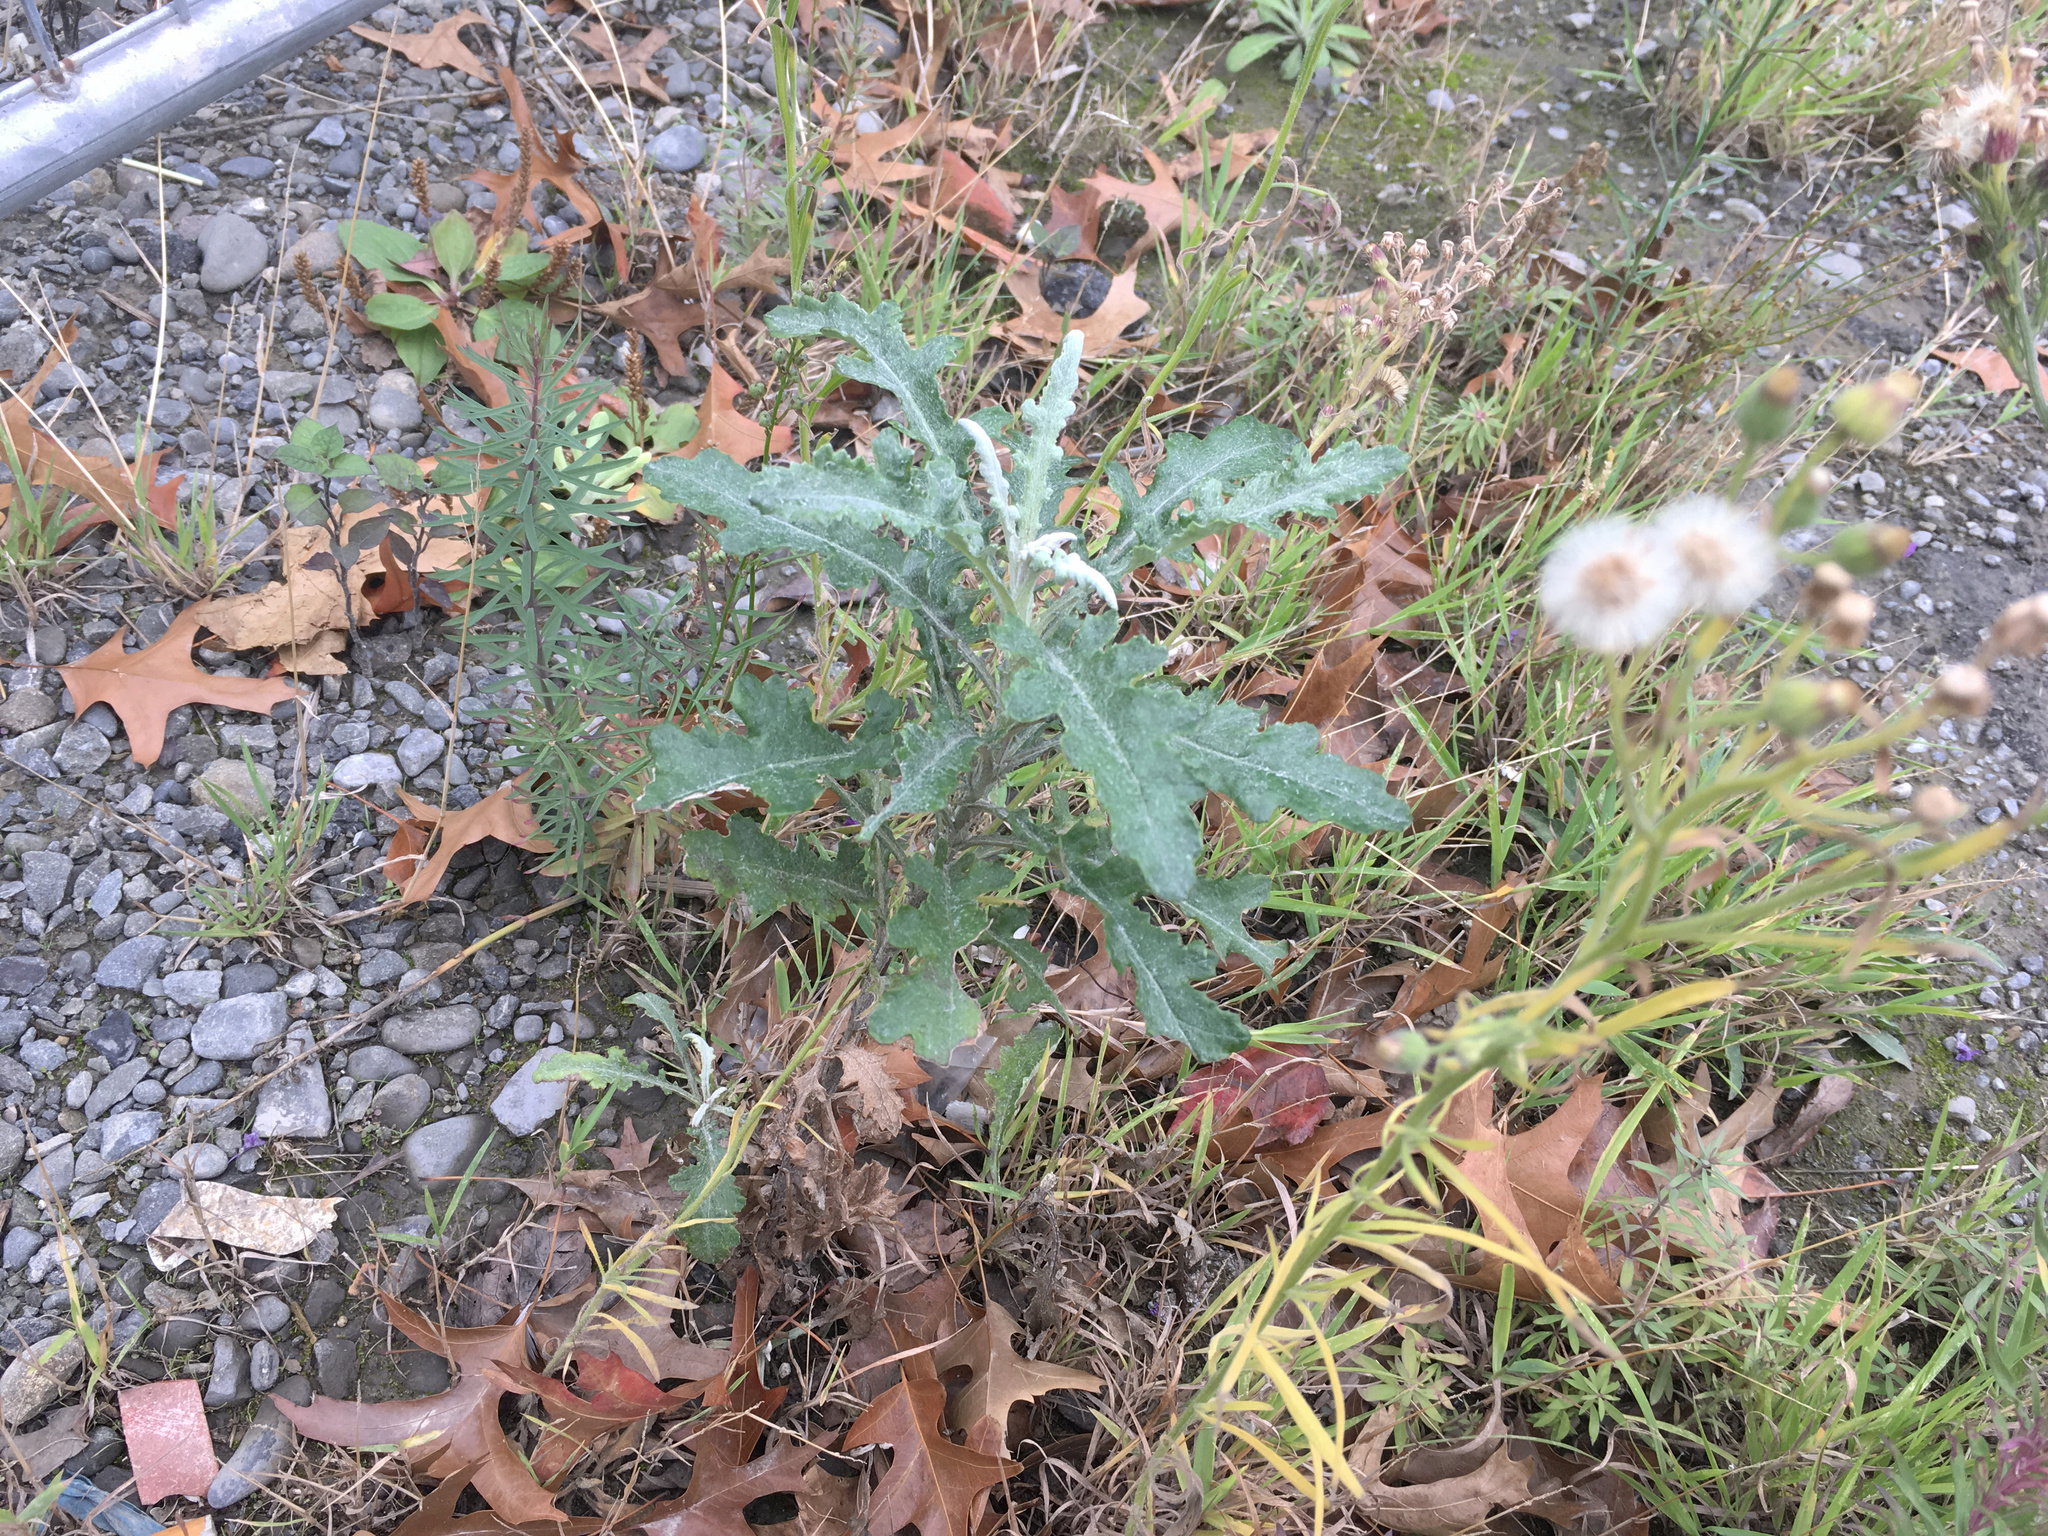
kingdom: Plantae
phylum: Tracheophyta
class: Magnoliopsida
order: Asterales
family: Asteraceae
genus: Senecio
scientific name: Senecio glomeratus
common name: Cutleaf burnweed
